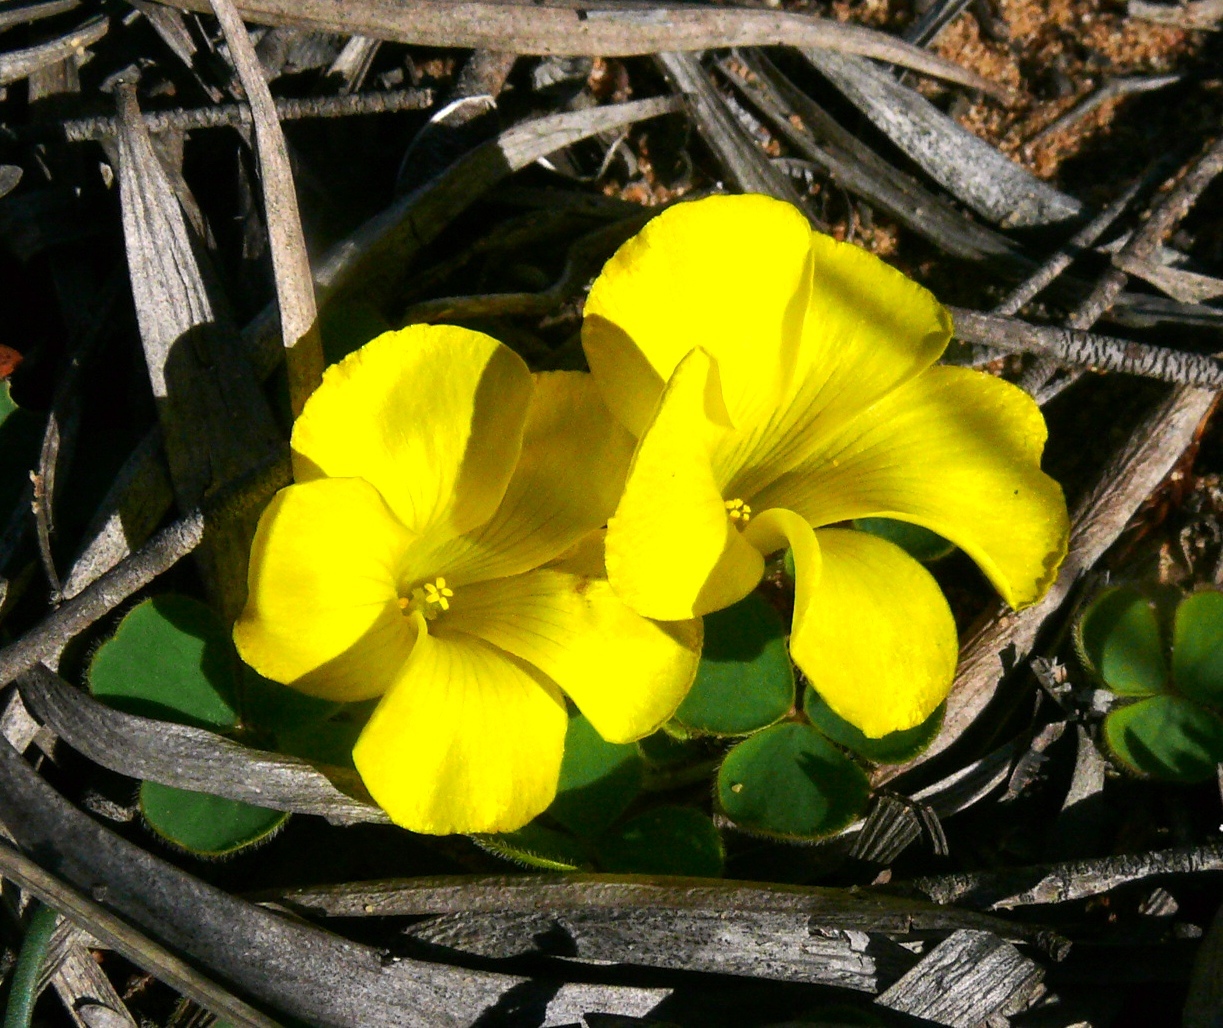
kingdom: Plantae
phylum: Tracheophyta
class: Magnoliopsida
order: Oxalidales
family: Oxalidaceae
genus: Oxalis
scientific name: Oxalis luteola
